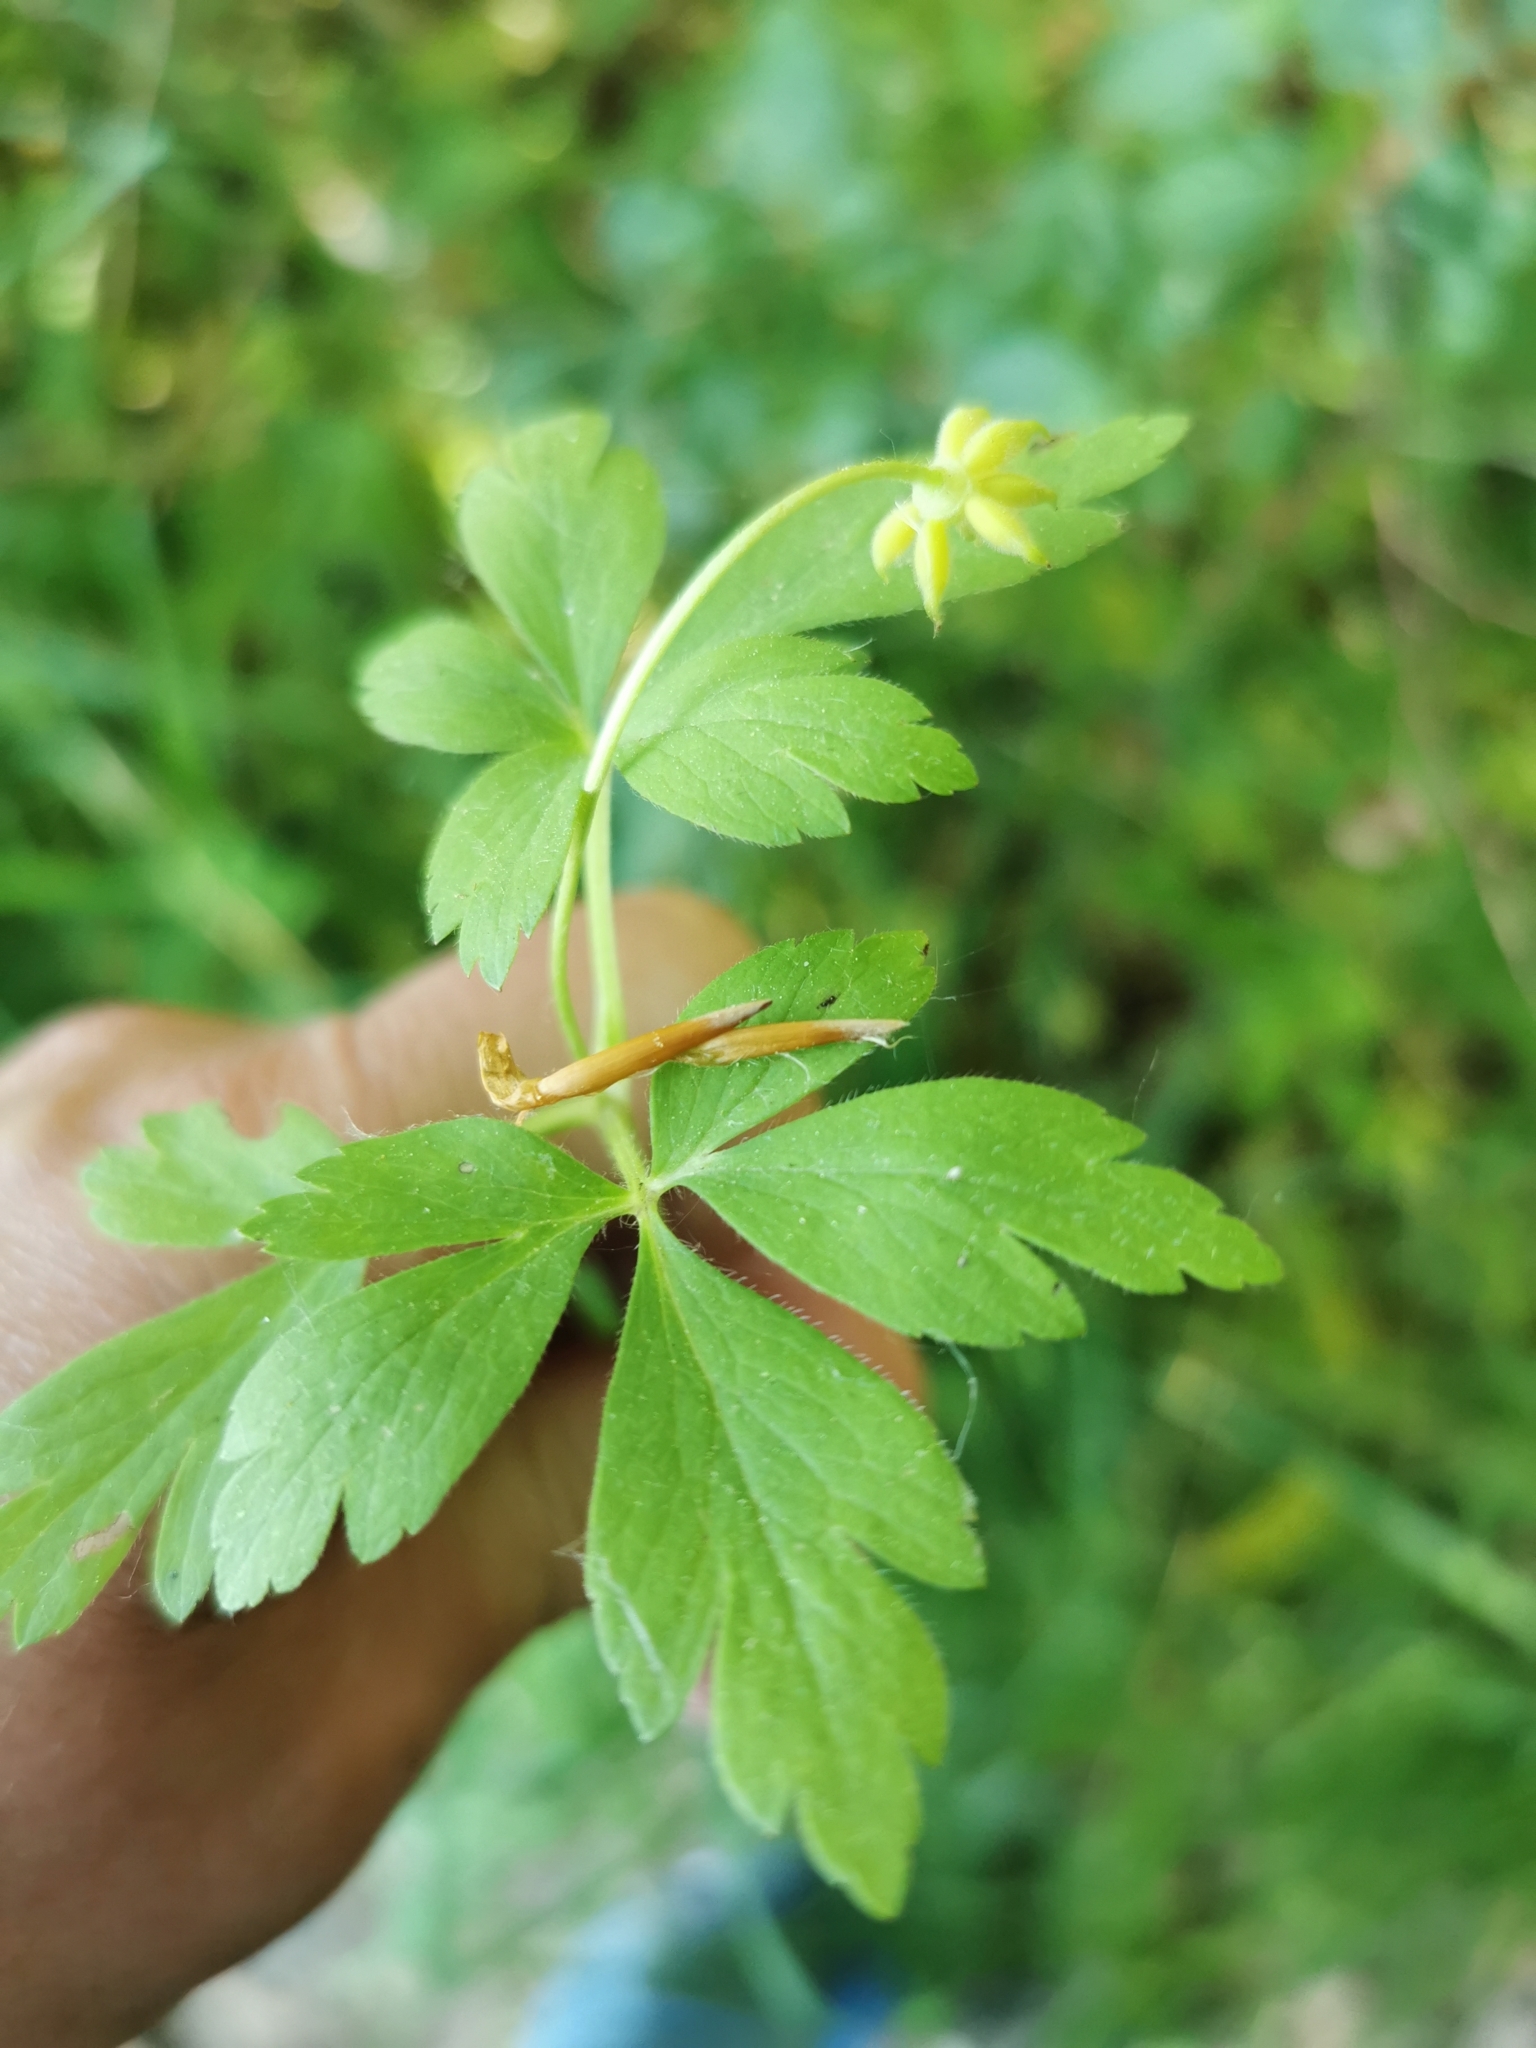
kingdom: Plantae
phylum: Tracheophyta
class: Magnoliopsida
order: Ranunculales
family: Ranunculaceae
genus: Anemone
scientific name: Anemone nemorosa
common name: Wood anemone
